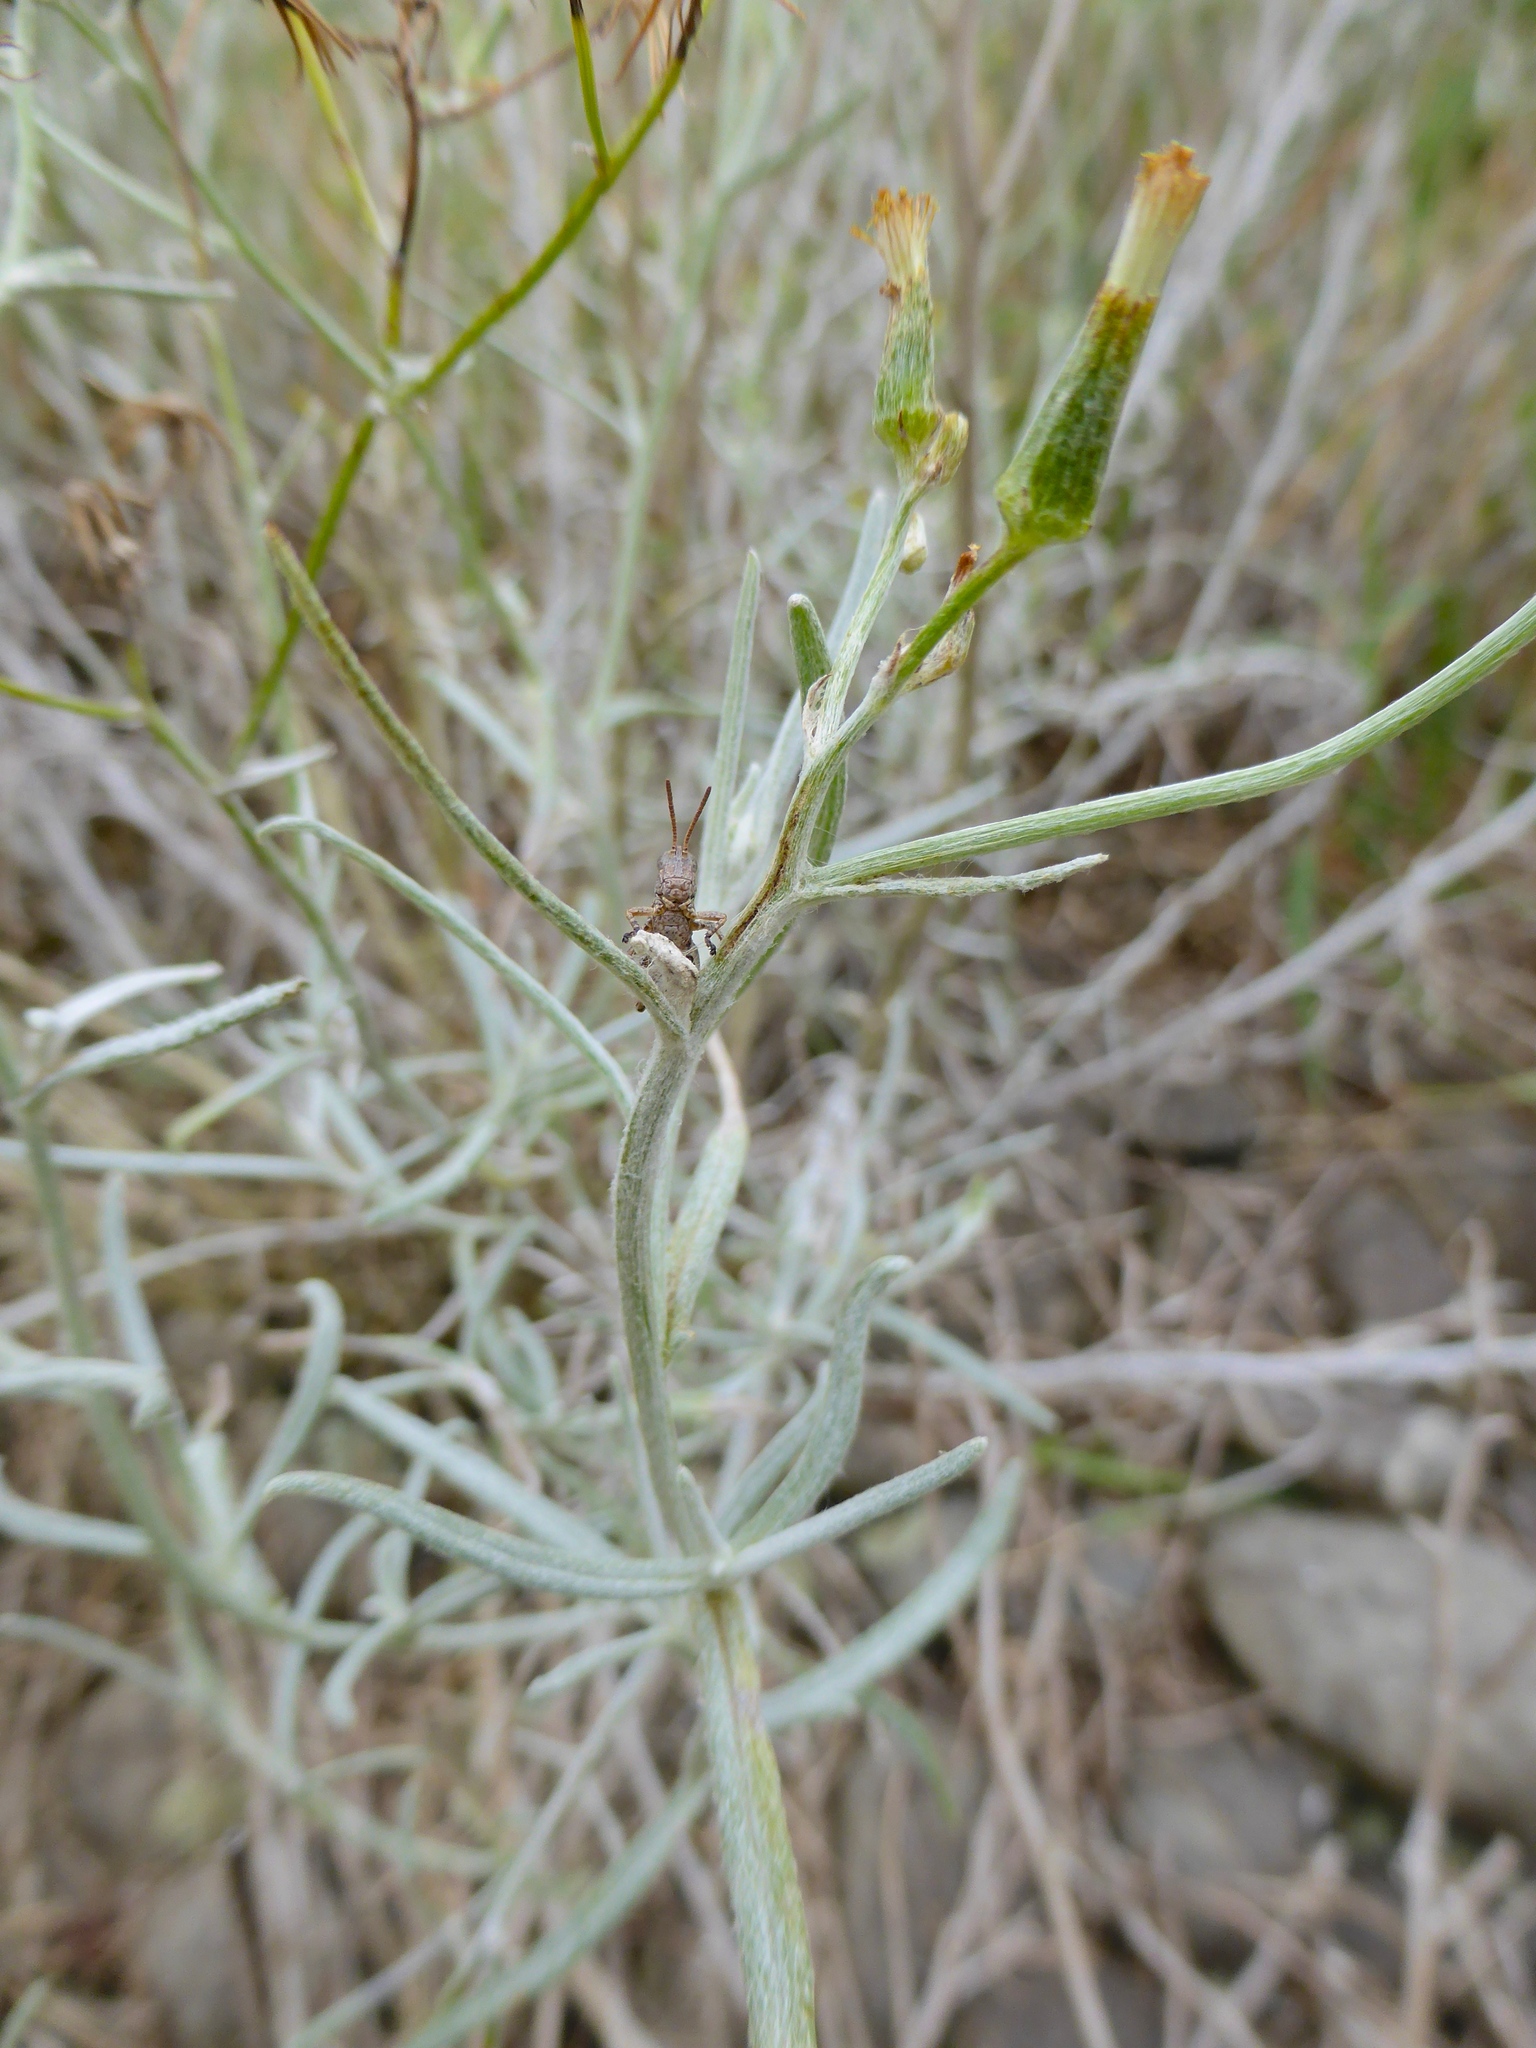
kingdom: Plantae
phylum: Tracheophyta
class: Magnoliopsida
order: Asterales
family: Asteraceae
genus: Senecio
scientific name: Senecio quadridentatus
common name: Cotton fireweed
